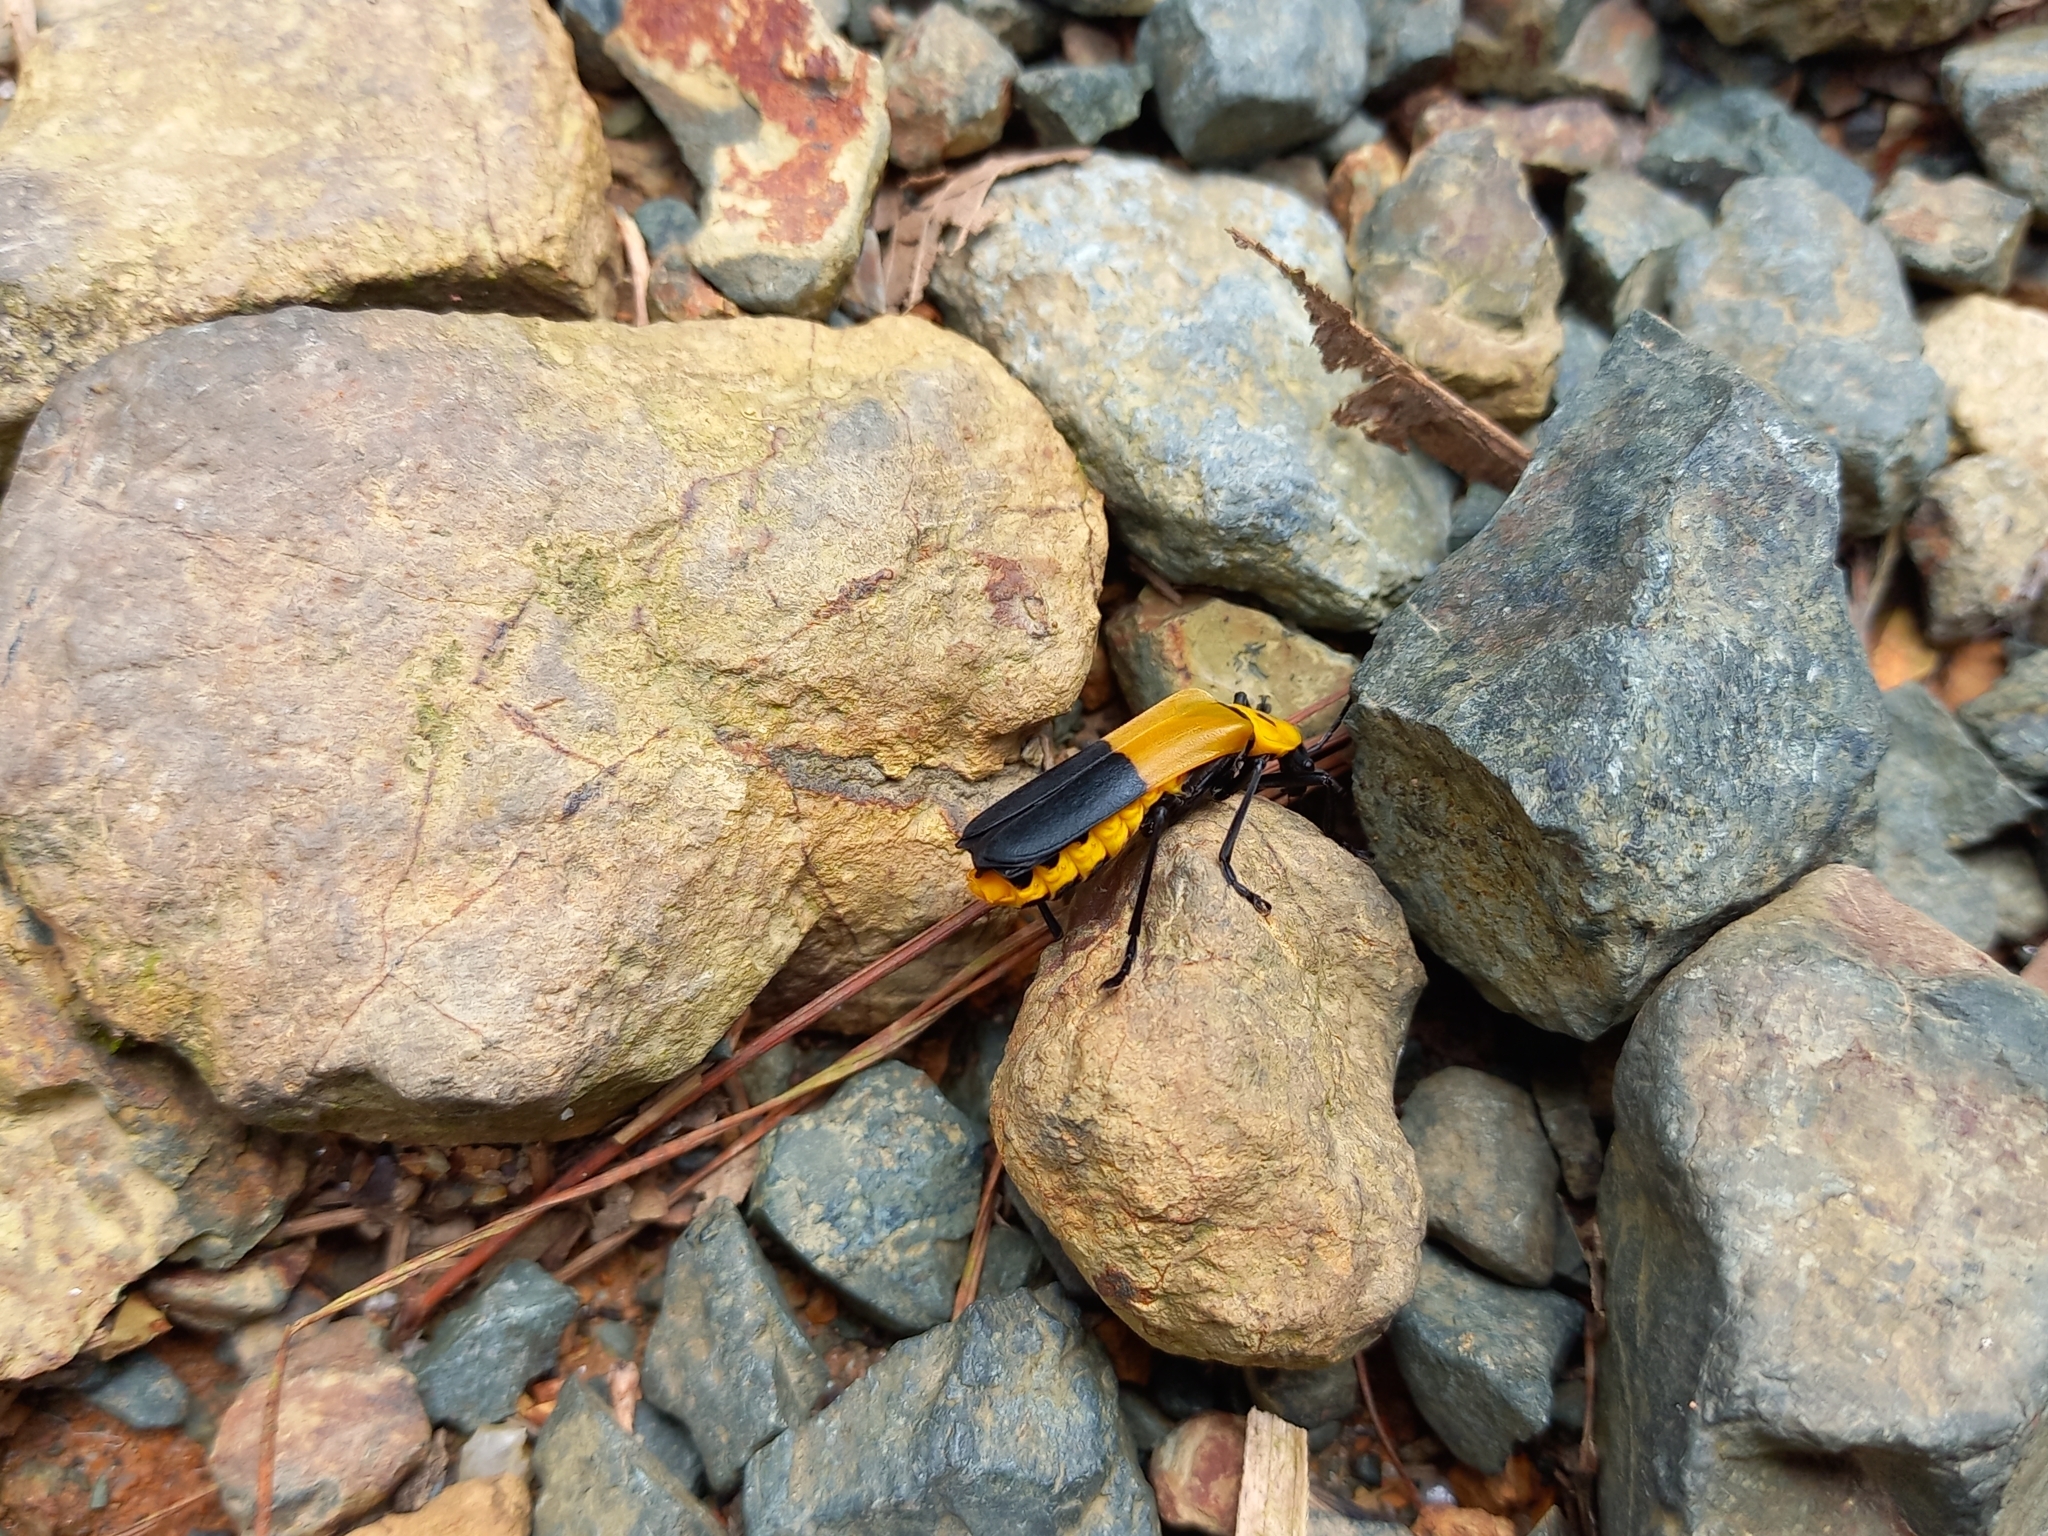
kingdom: Animalia
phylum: Arthropoda
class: Insecta
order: Coleoptera
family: Cantharidae
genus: Chauliognathus
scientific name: Chauliognathus
